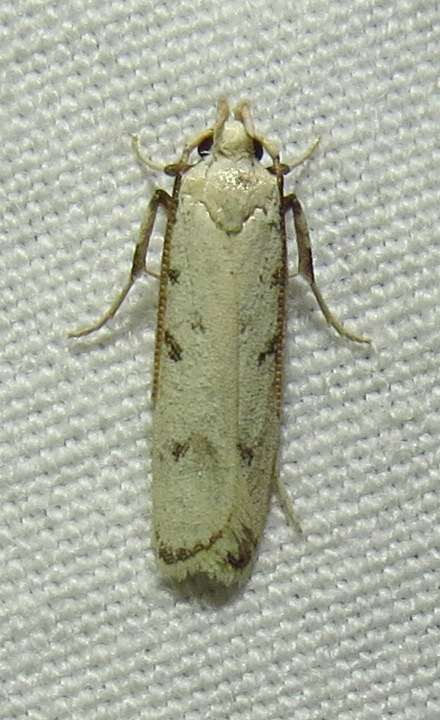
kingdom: Animalia
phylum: Arthropoda
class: Insecta
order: Lepidoptera
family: Autostichidae
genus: Glyphidocera
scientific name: Glyphidocera lactiflosella
